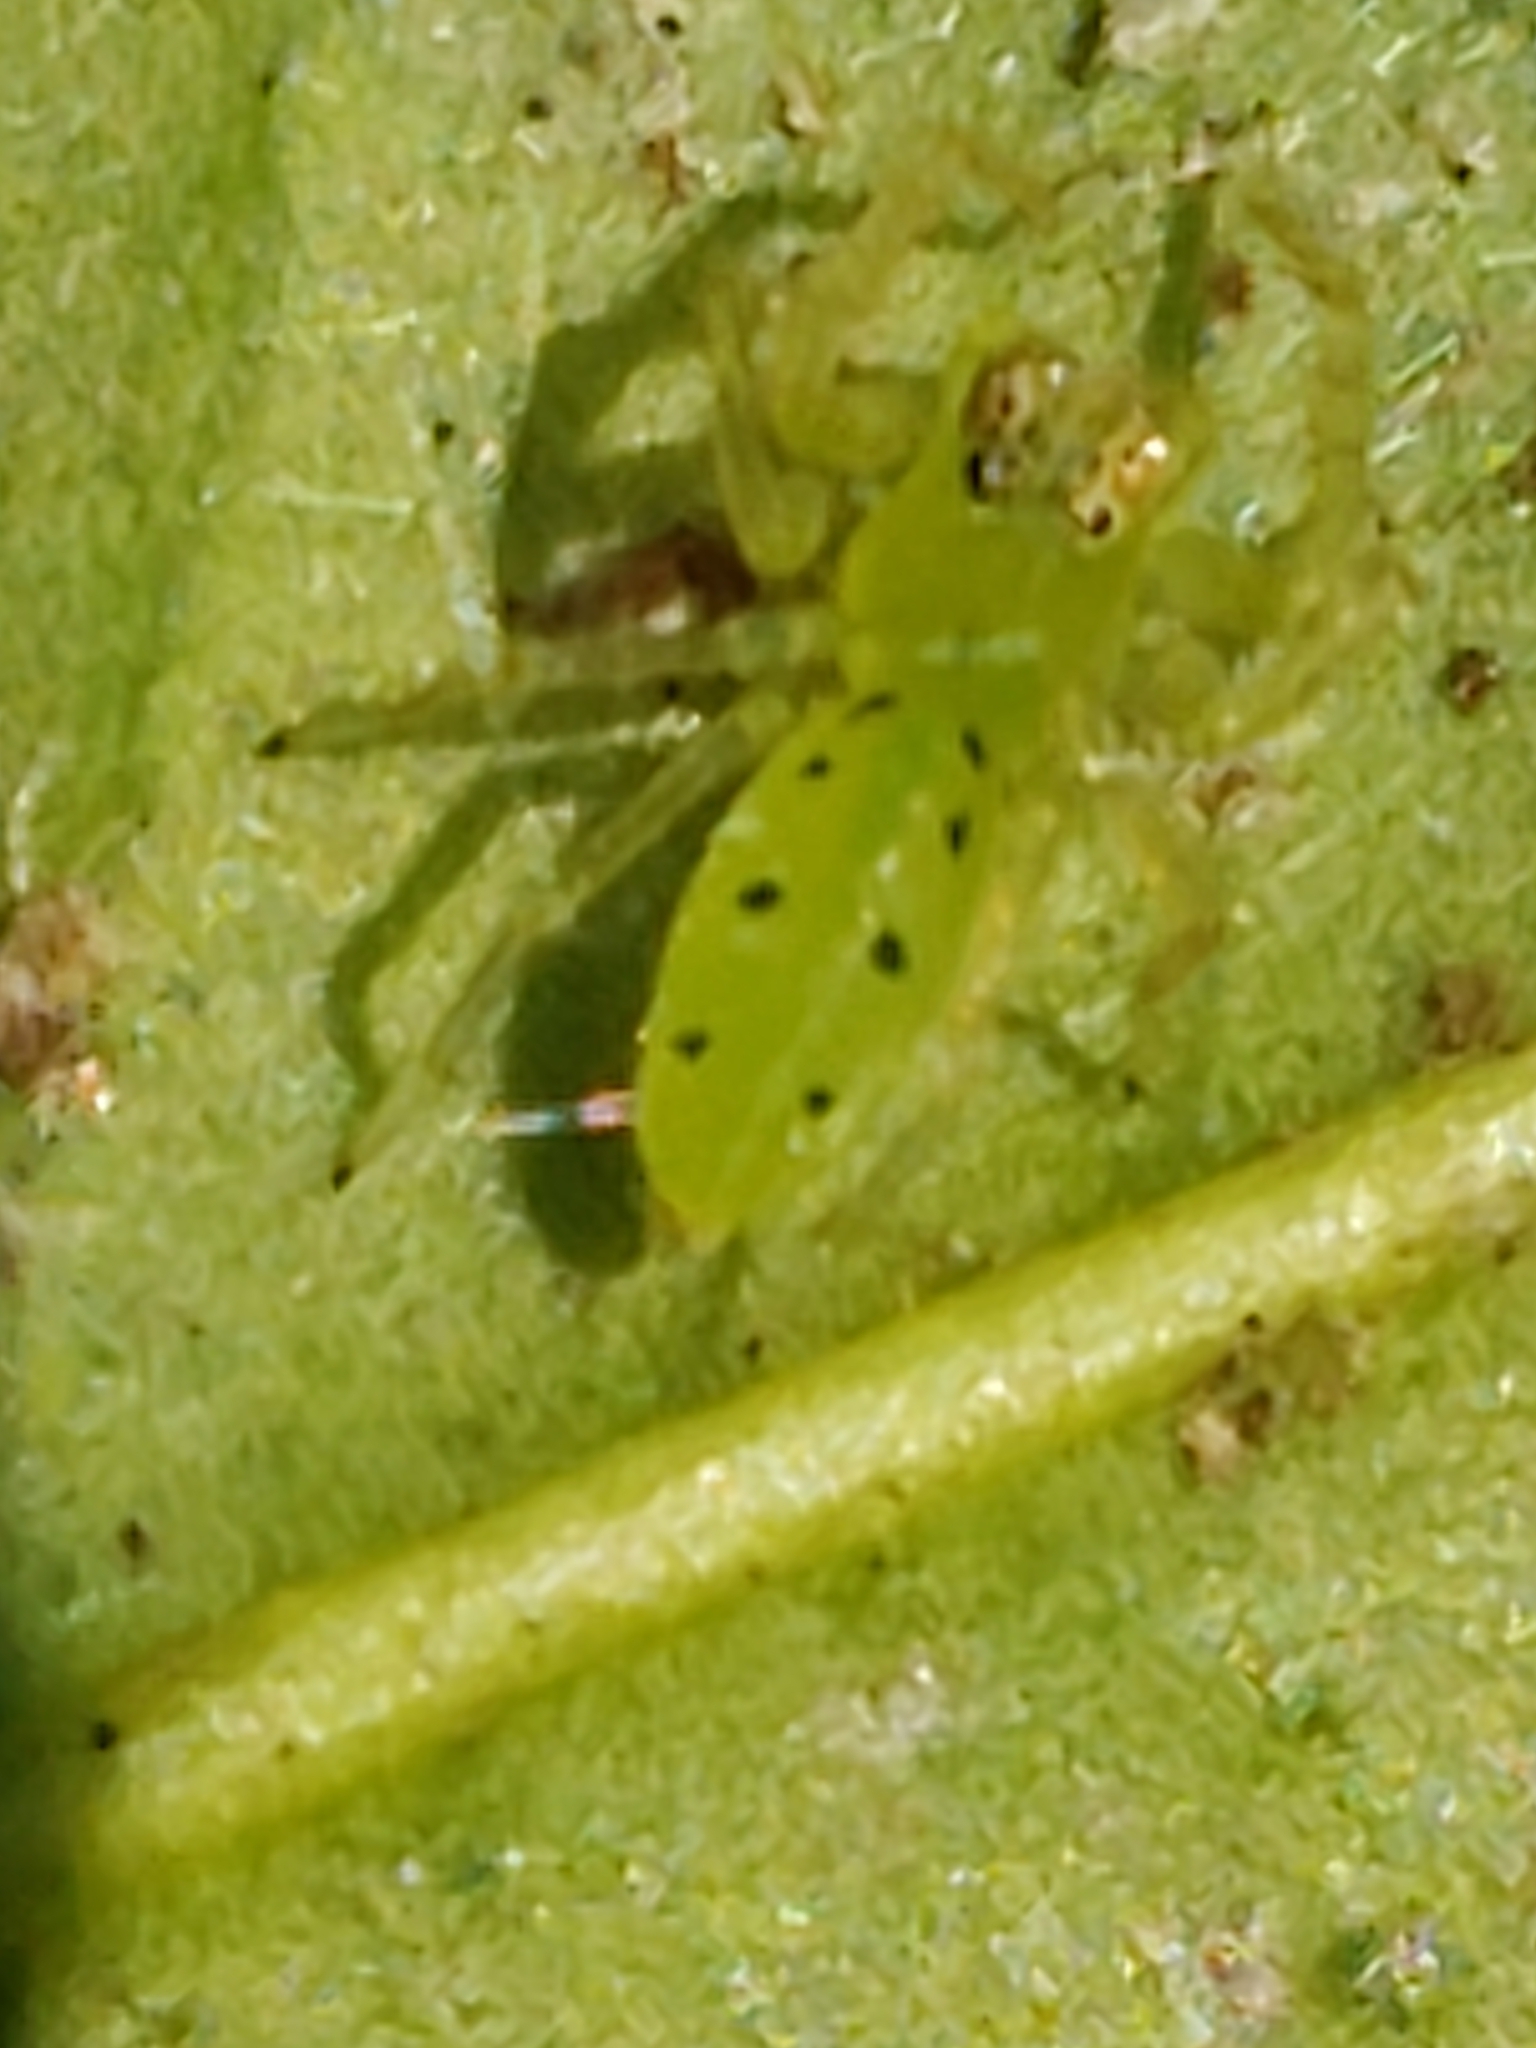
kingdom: Animalia
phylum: Arthropoda
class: Arachnida
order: Araneae
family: Salticidae
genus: Lyssomanes
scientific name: Lyssomanes viridis
